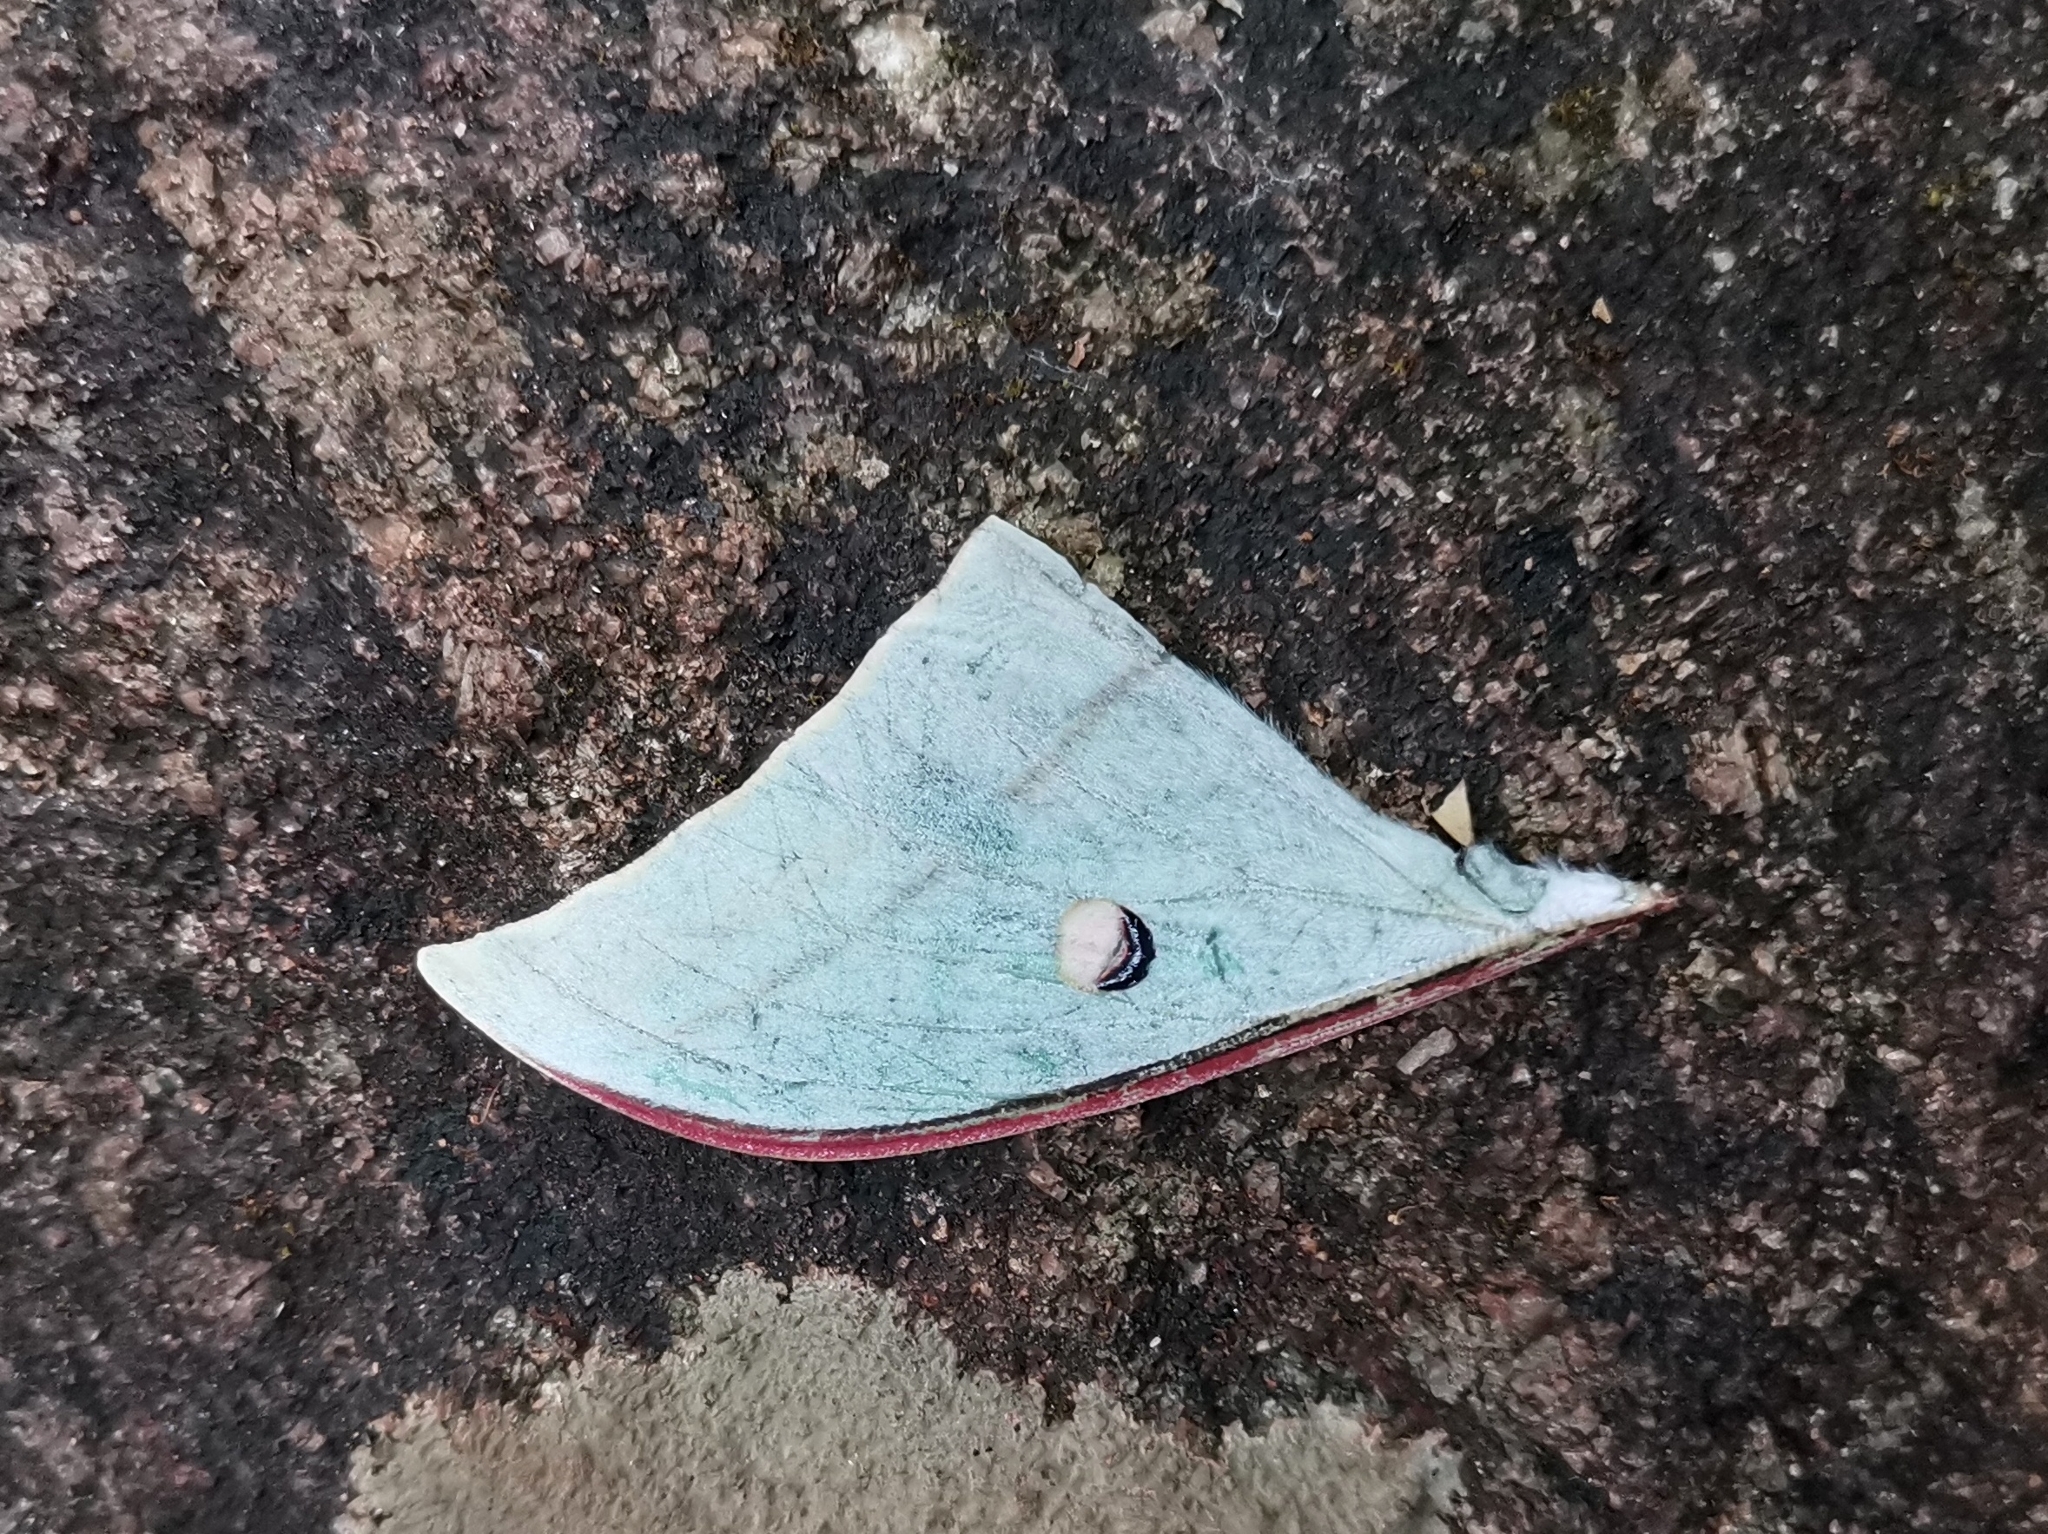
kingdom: Animalia
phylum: Arthropoda
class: Insecta
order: Lepidoptera
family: Saturniidae
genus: Actias
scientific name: Actias selene
